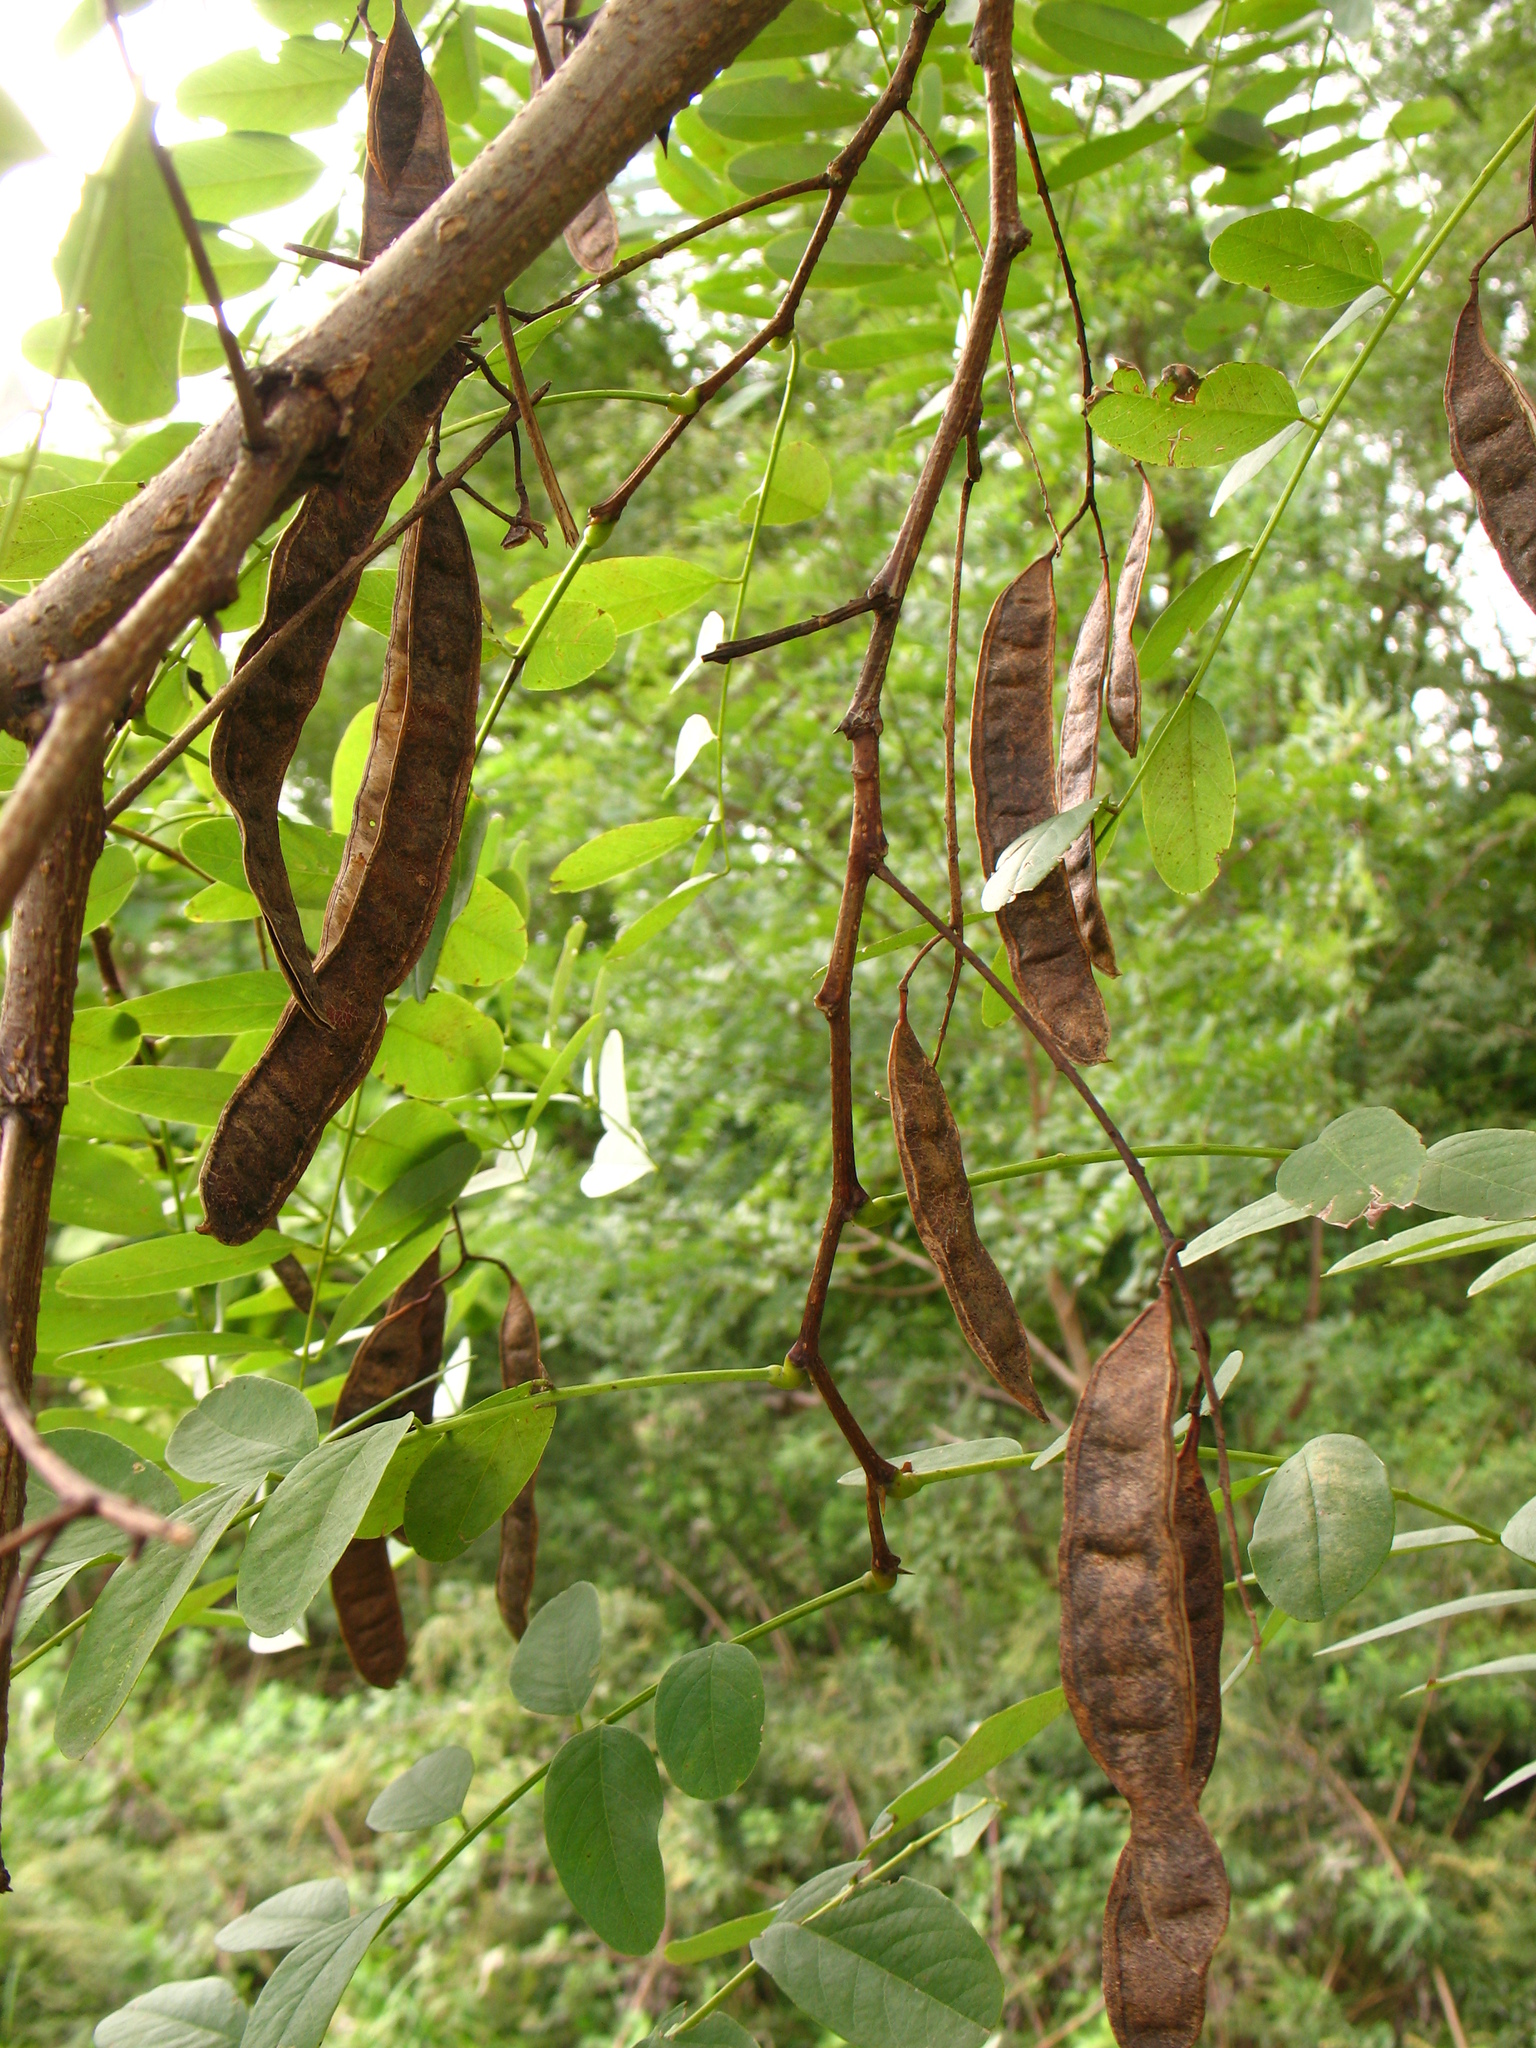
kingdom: Plantae
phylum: Tracheophyta
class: Magnoliopsida
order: Fabales
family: Fabaceae
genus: Robinia
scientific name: Robinia pseudoacacia
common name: Black locust
